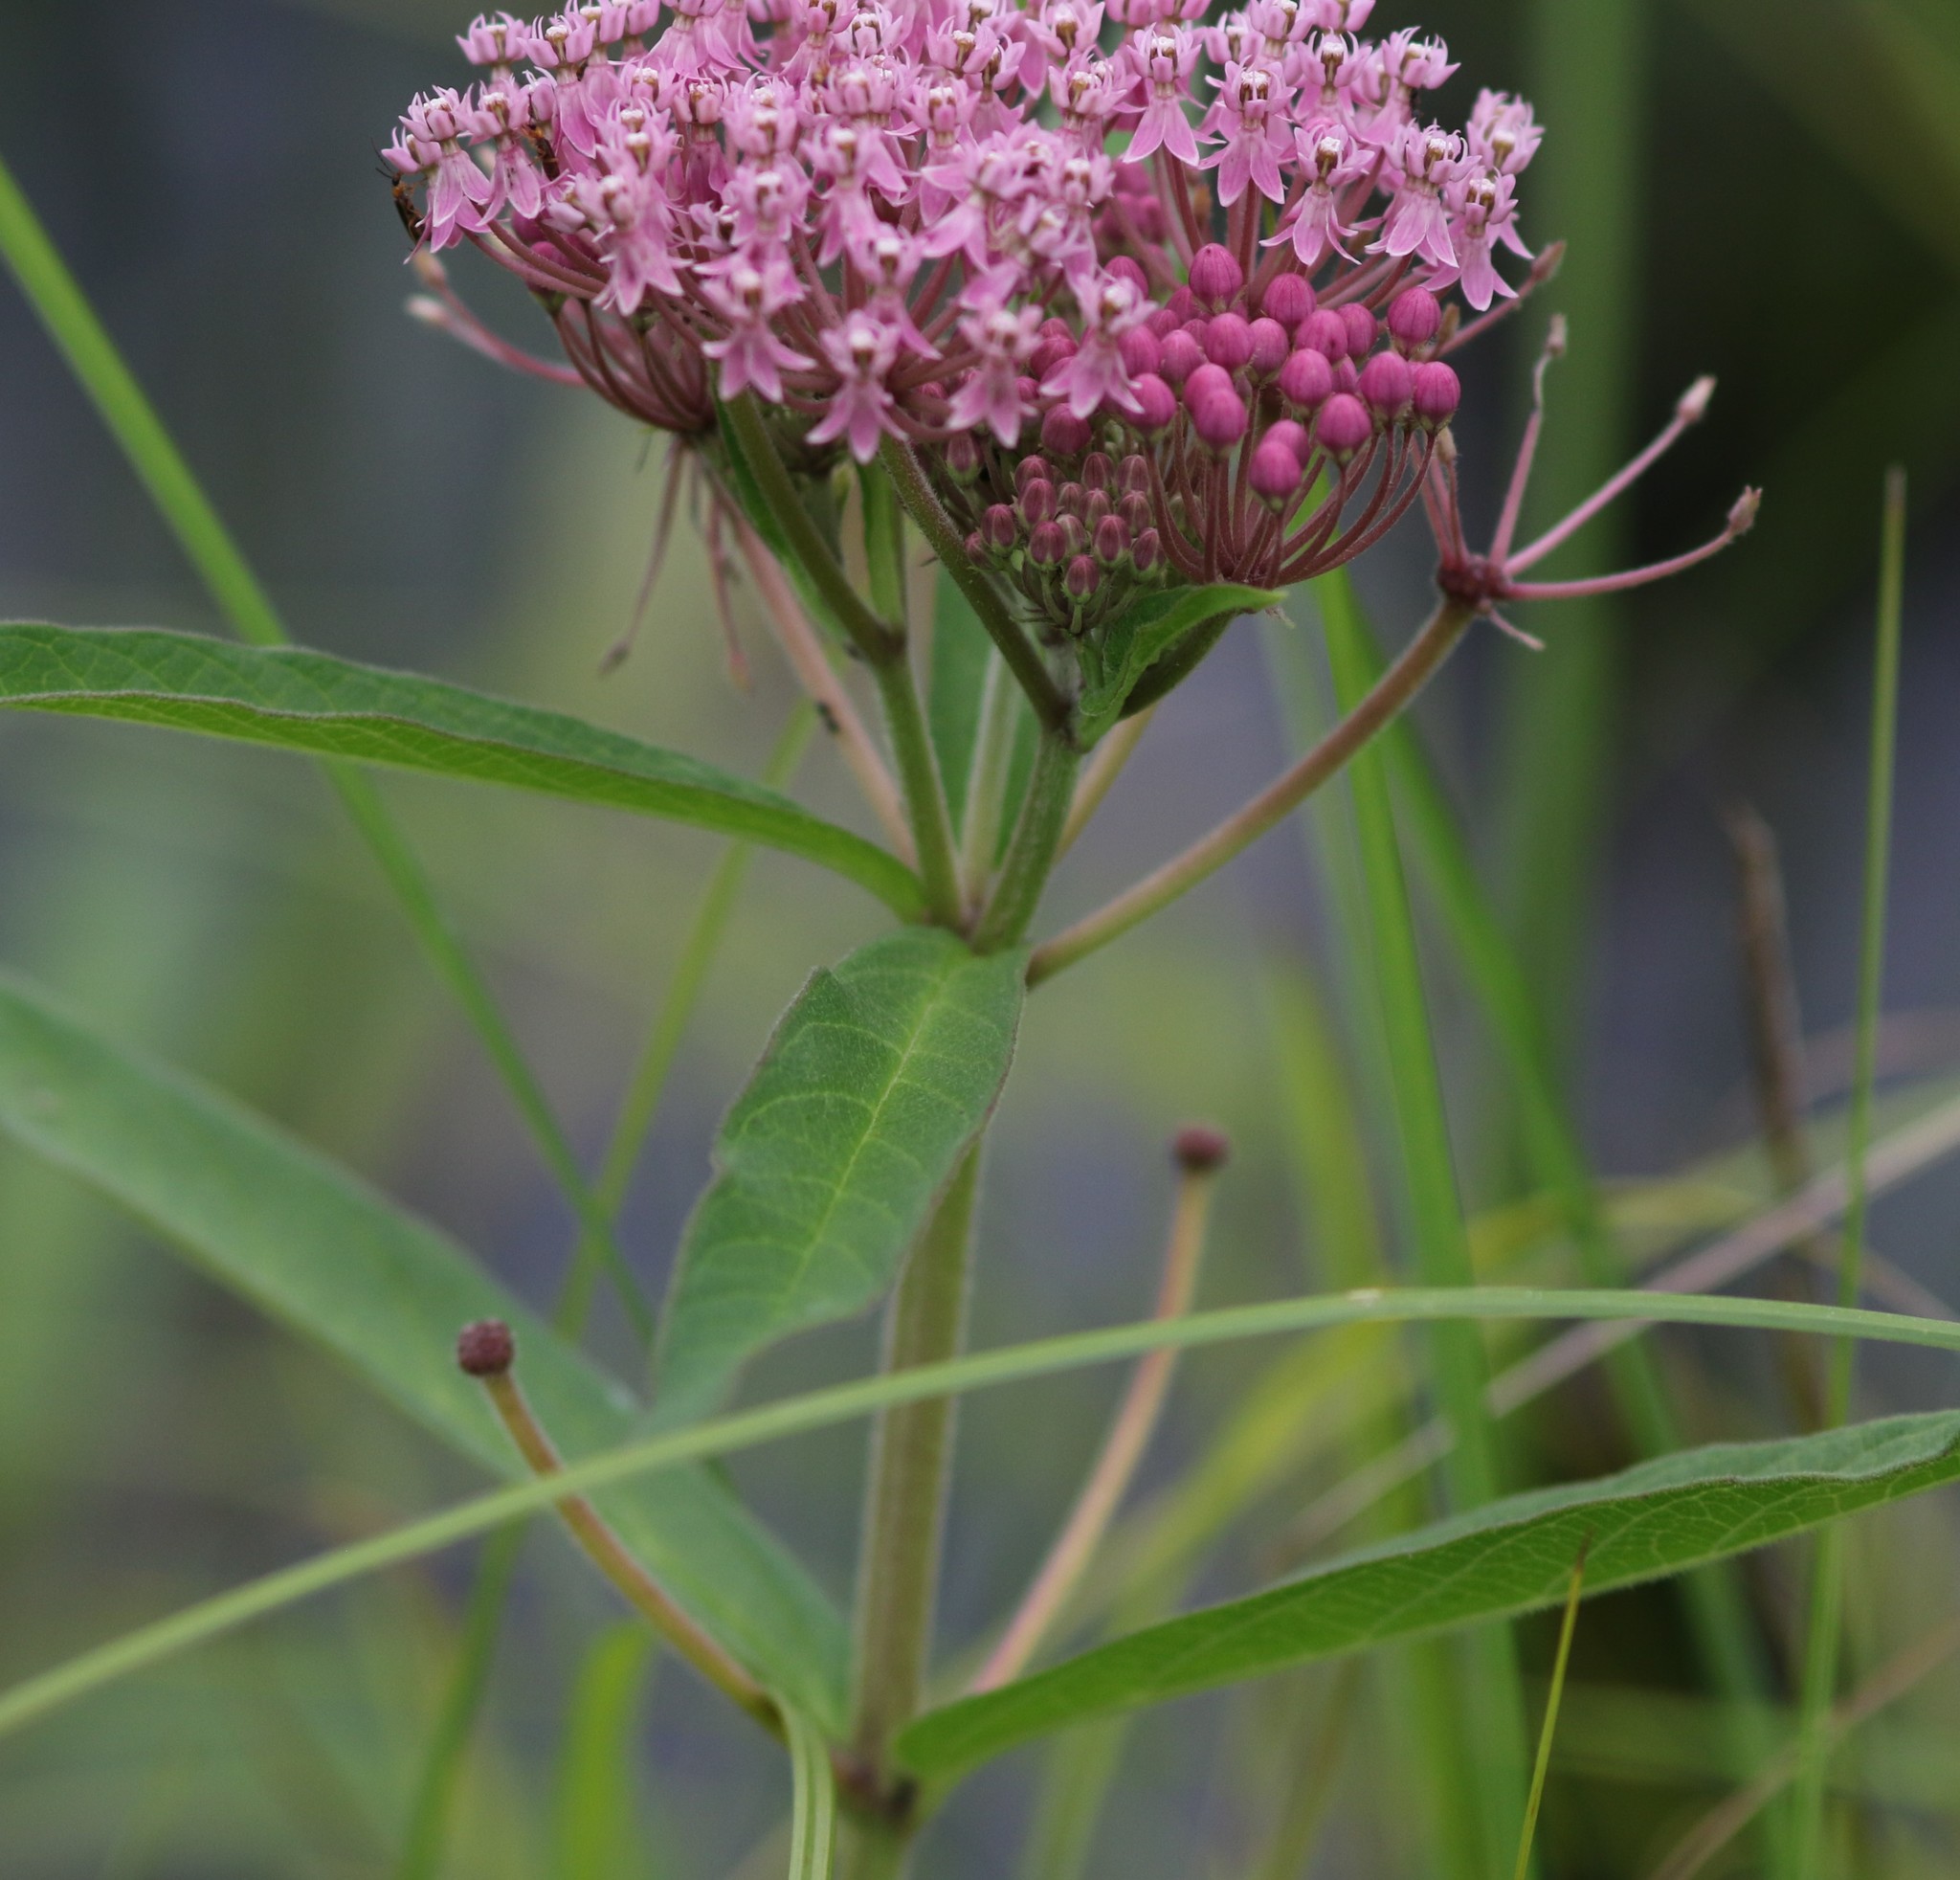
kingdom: Plantae
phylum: Tracheophyta
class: Magnoliopsida
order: Gentianales
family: Apocynaceae
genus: Asclepias
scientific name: Asclepias incarnata
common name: Swamp milkweed
